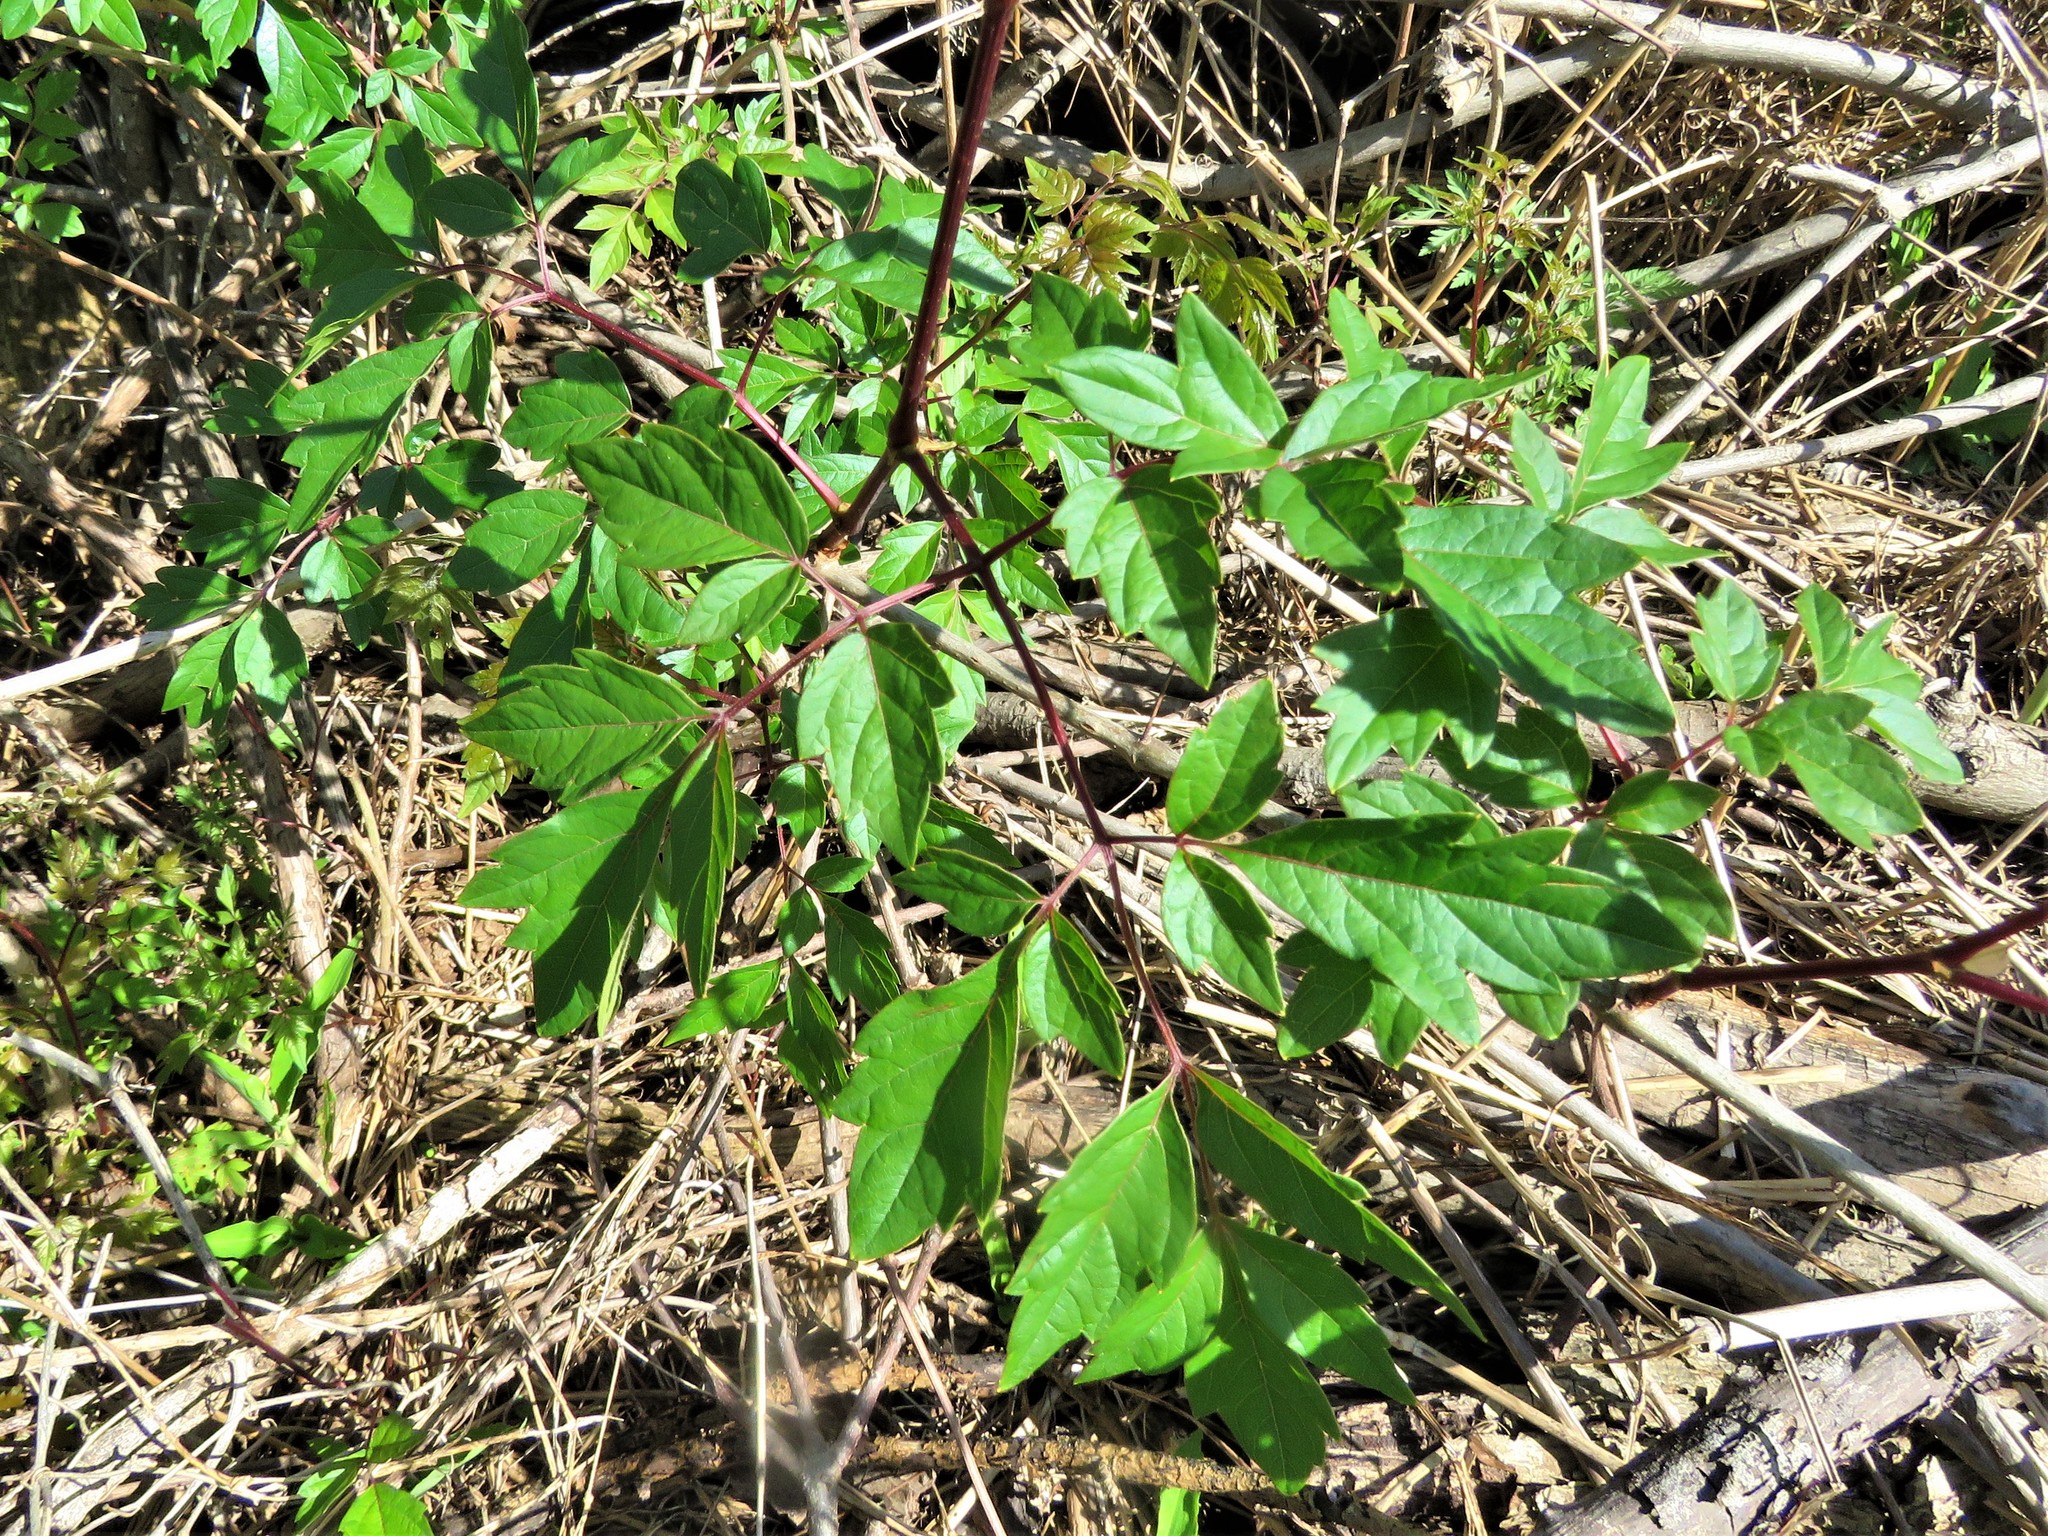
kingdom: Plantae
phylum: Tracheophyta
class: Magnoliopsida
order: Vitales
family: Vitaceae
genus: Nekemias
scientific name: Nekemias arborea
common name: Peppervine
